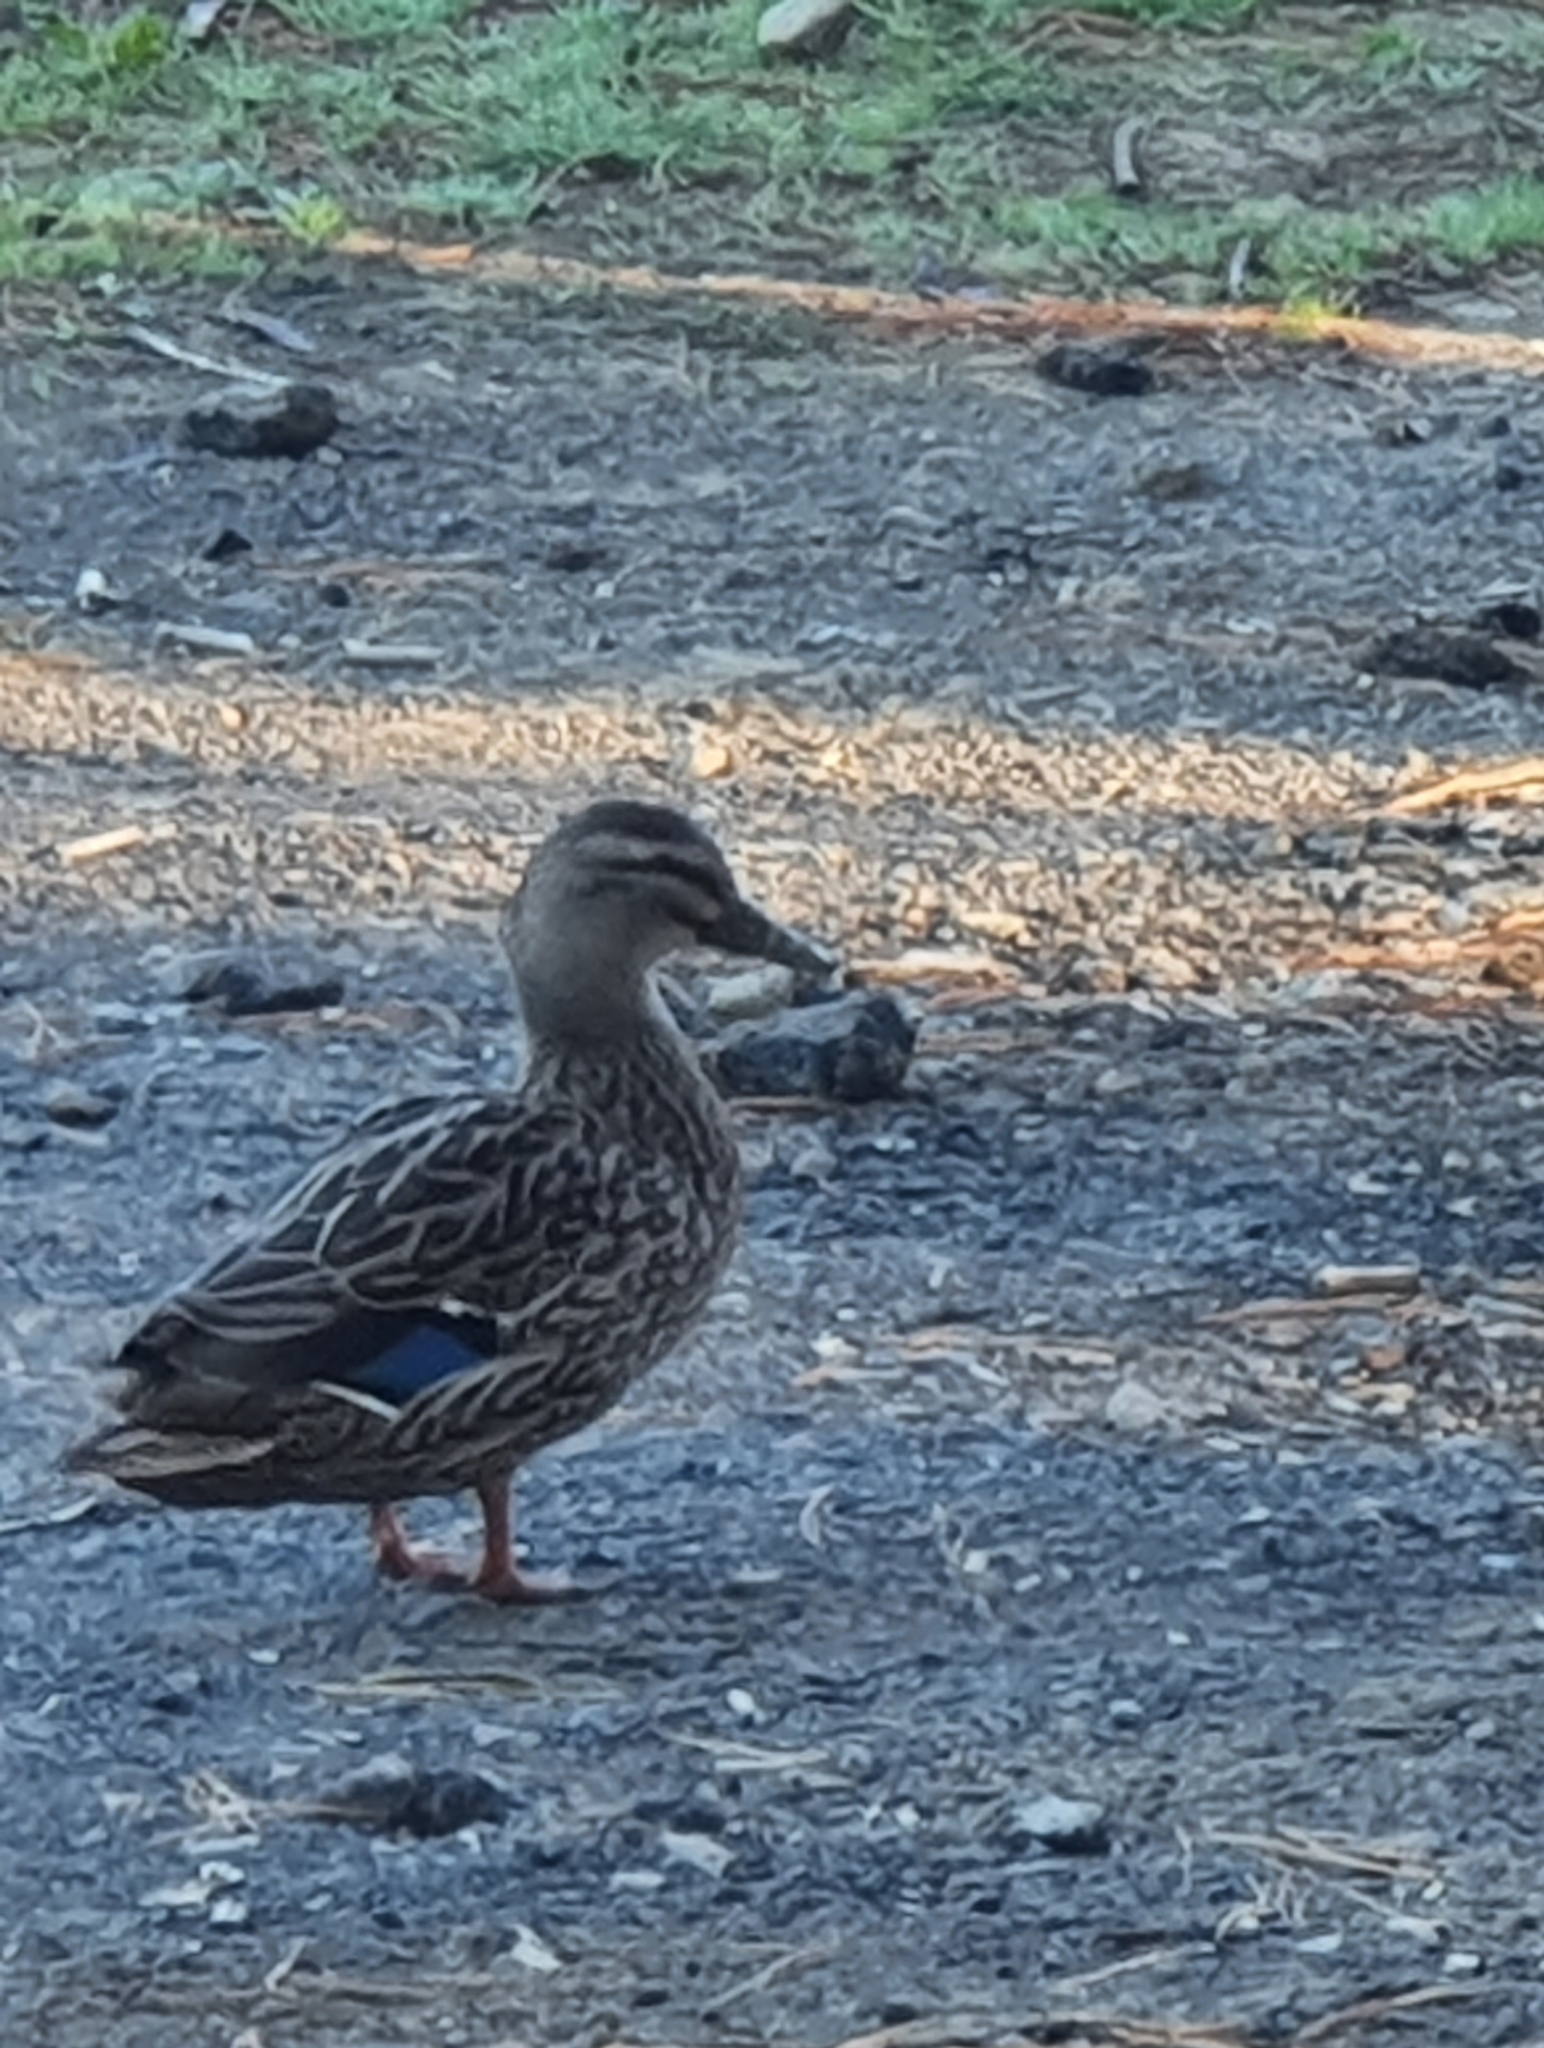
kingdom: Animalia
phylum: Chordata
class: Aves
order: Anseriformes
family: Anatidae
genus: Anas
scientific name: Anas platyrhynchos
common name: Mallard
